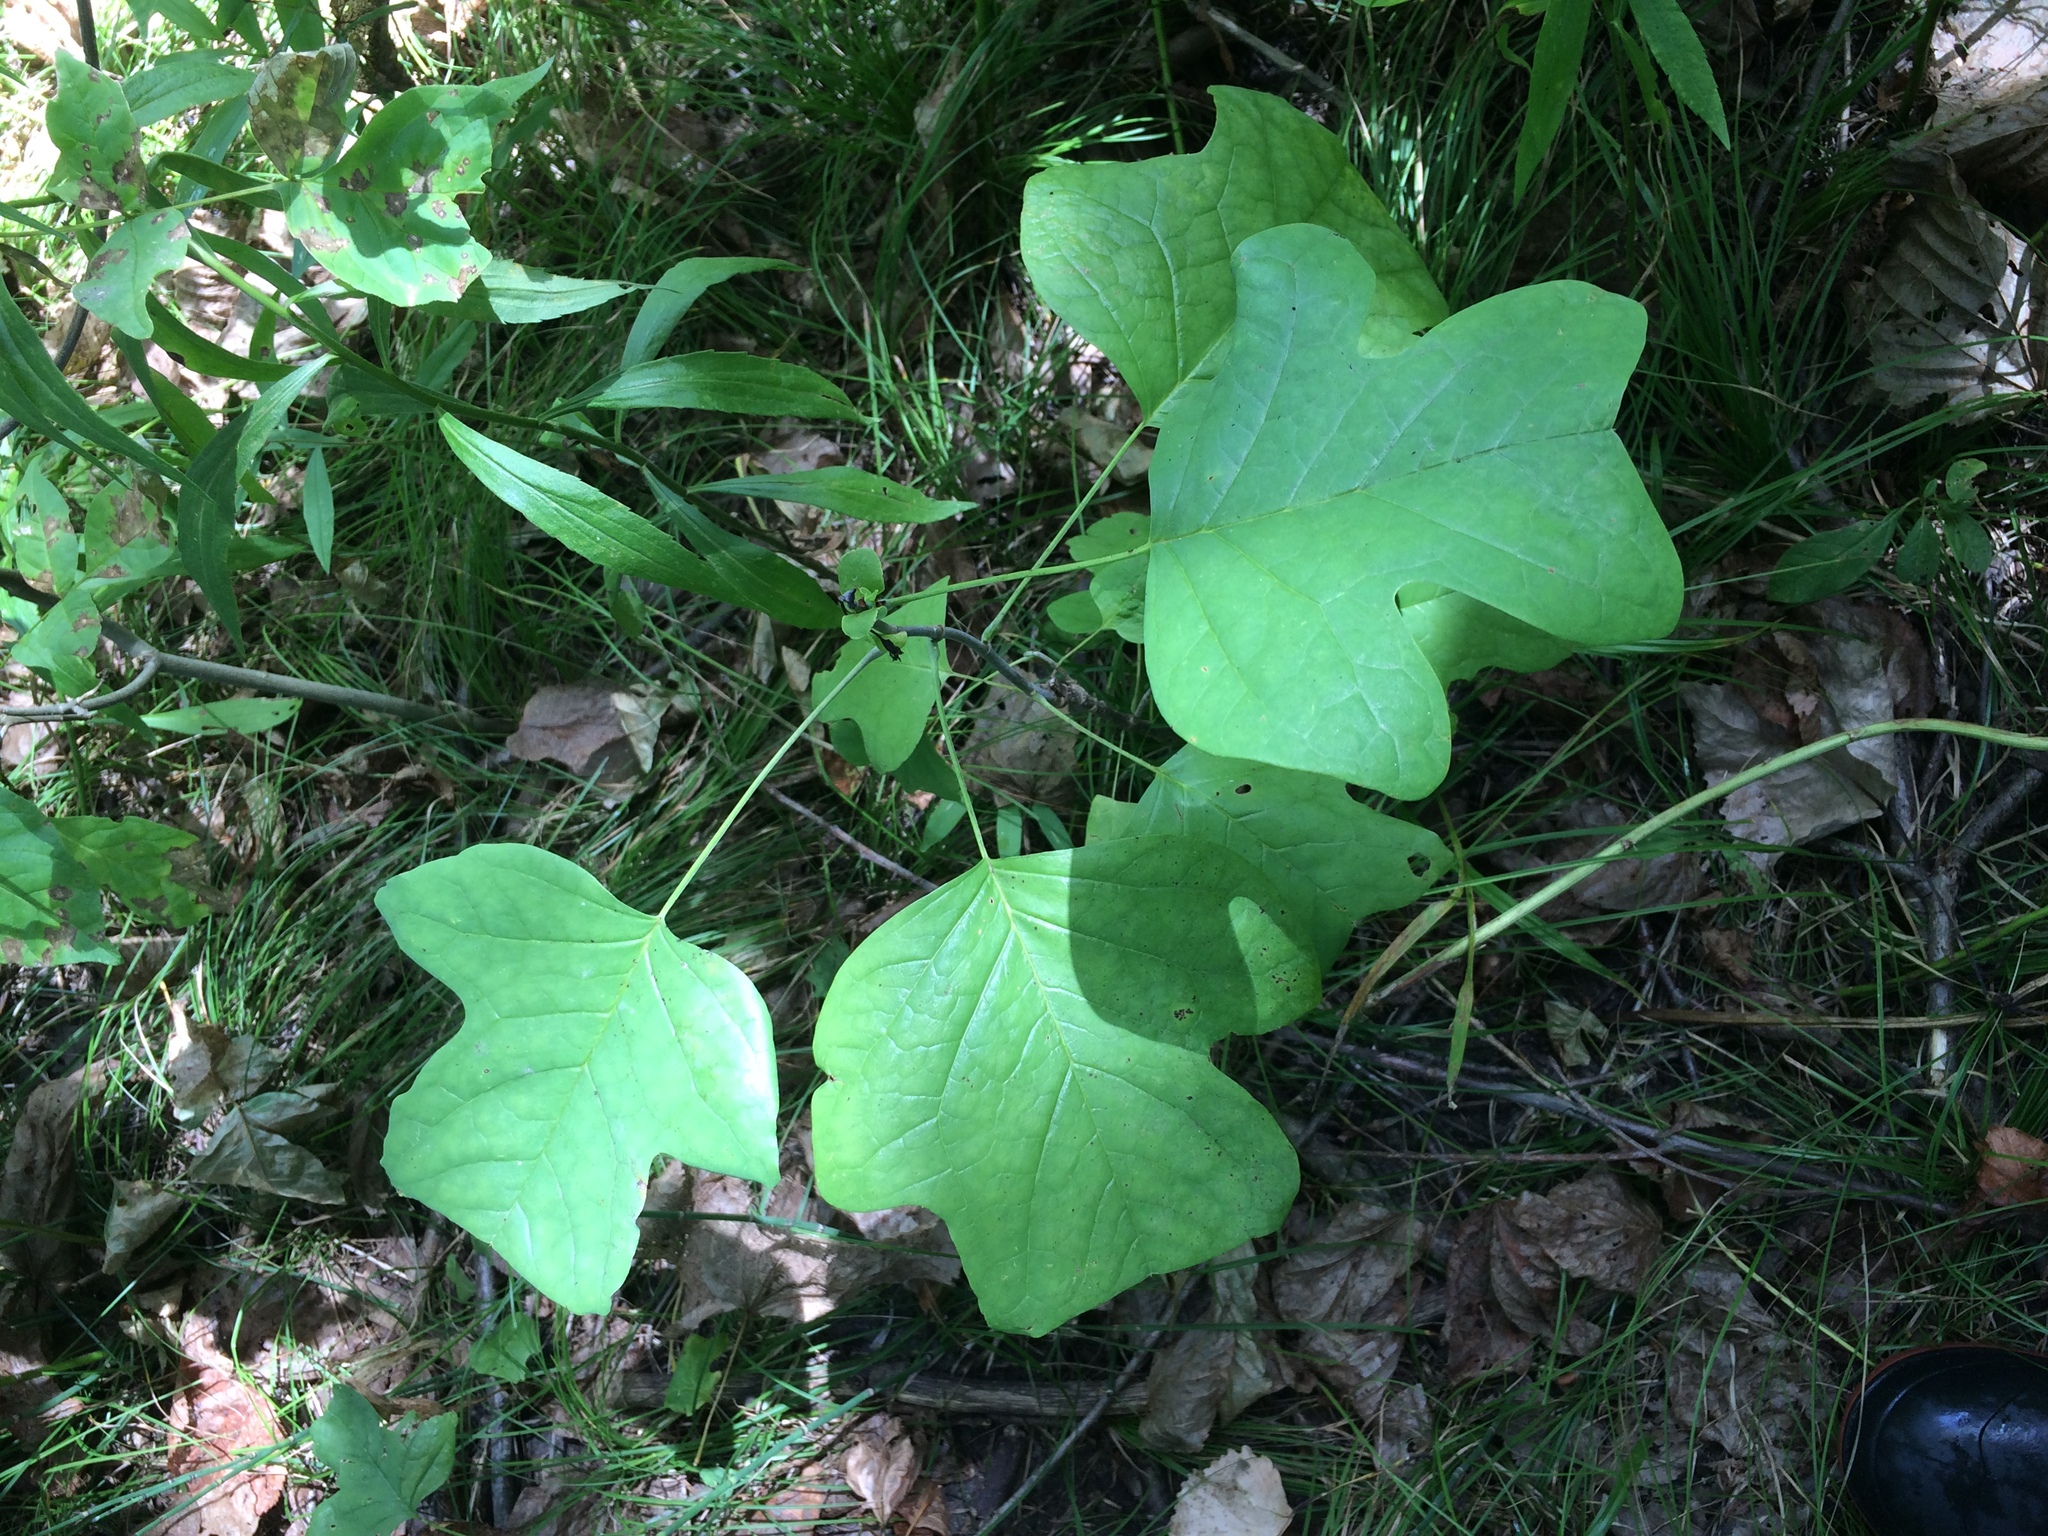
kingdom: Plantae
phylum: Tracheophyta
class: Magnoliopsida
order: Magnoliales
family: Magnoliaceae
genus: Liriodendron
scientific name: Liriodendron tulipifera
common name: Tulip tree
